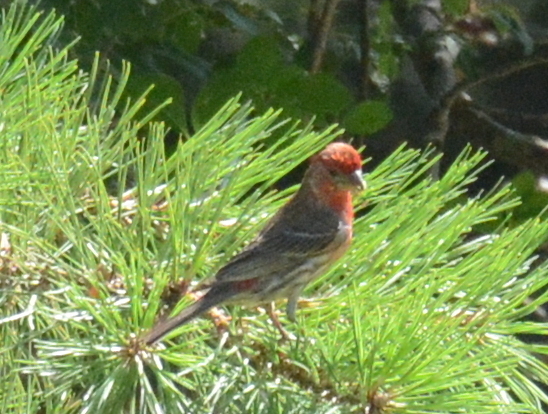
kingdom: Animalia
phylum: Chordata
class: Aves
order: Passeriformes
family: Fringillidae
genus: Haemorhous
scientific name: Haemorhous mexicanus
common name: House finch
